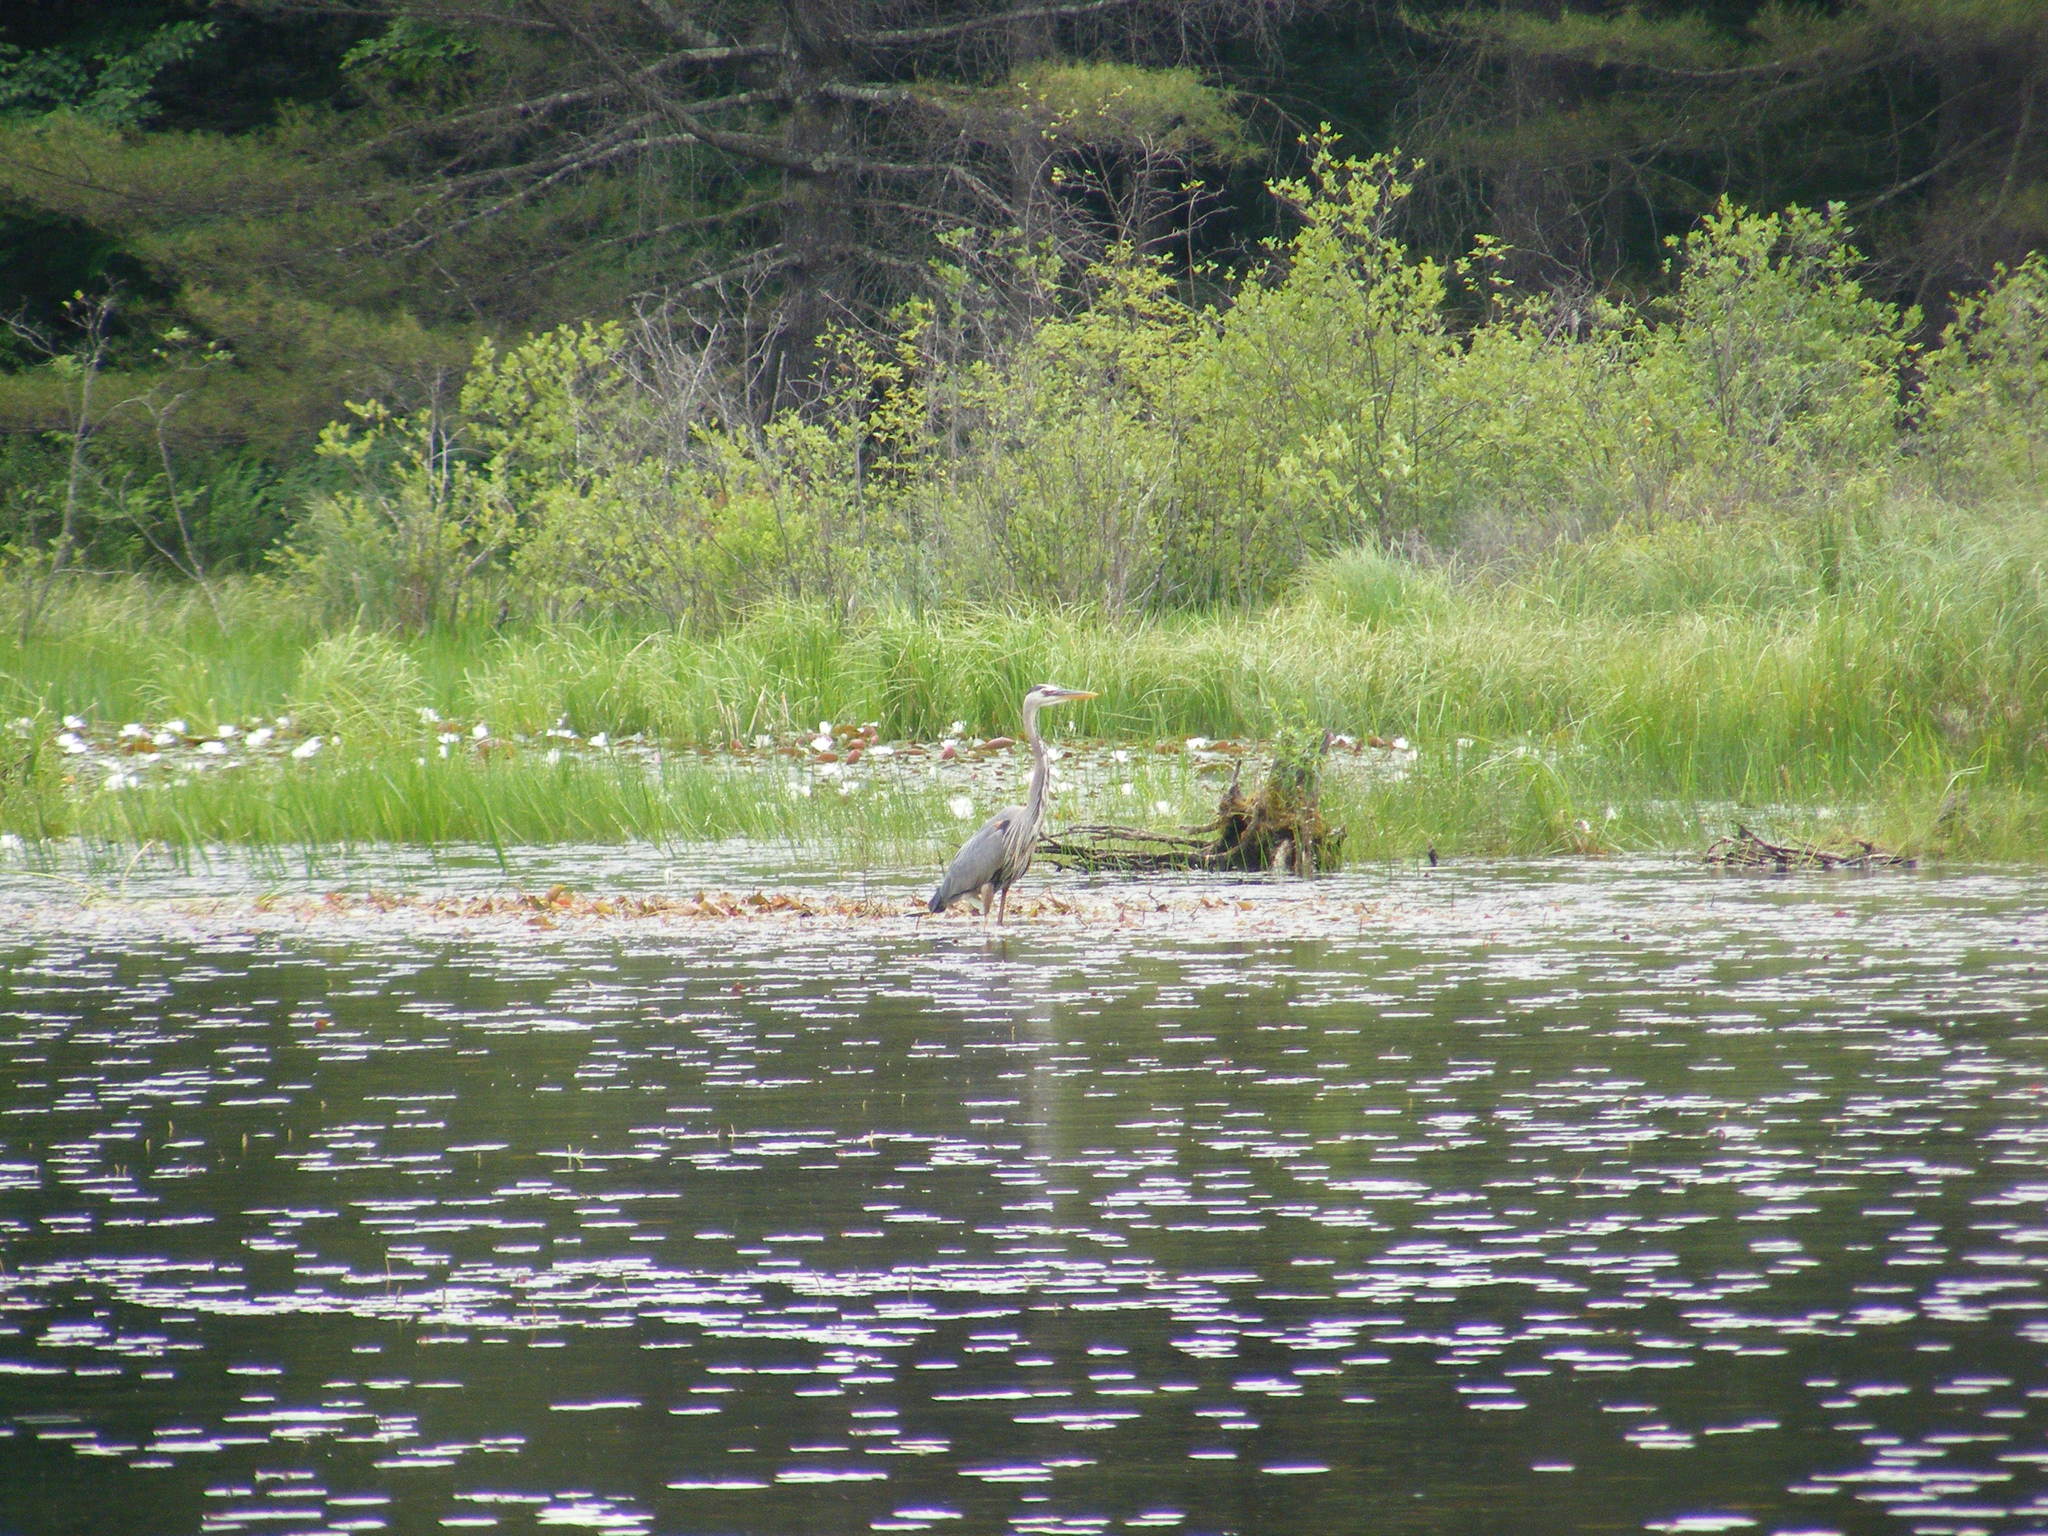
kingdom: Animalia
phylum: Chordata
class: Aves
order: Pelecaniformes
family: Ardeidae
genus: Ardea
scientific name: Ardea herodias
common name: Great blue heron
